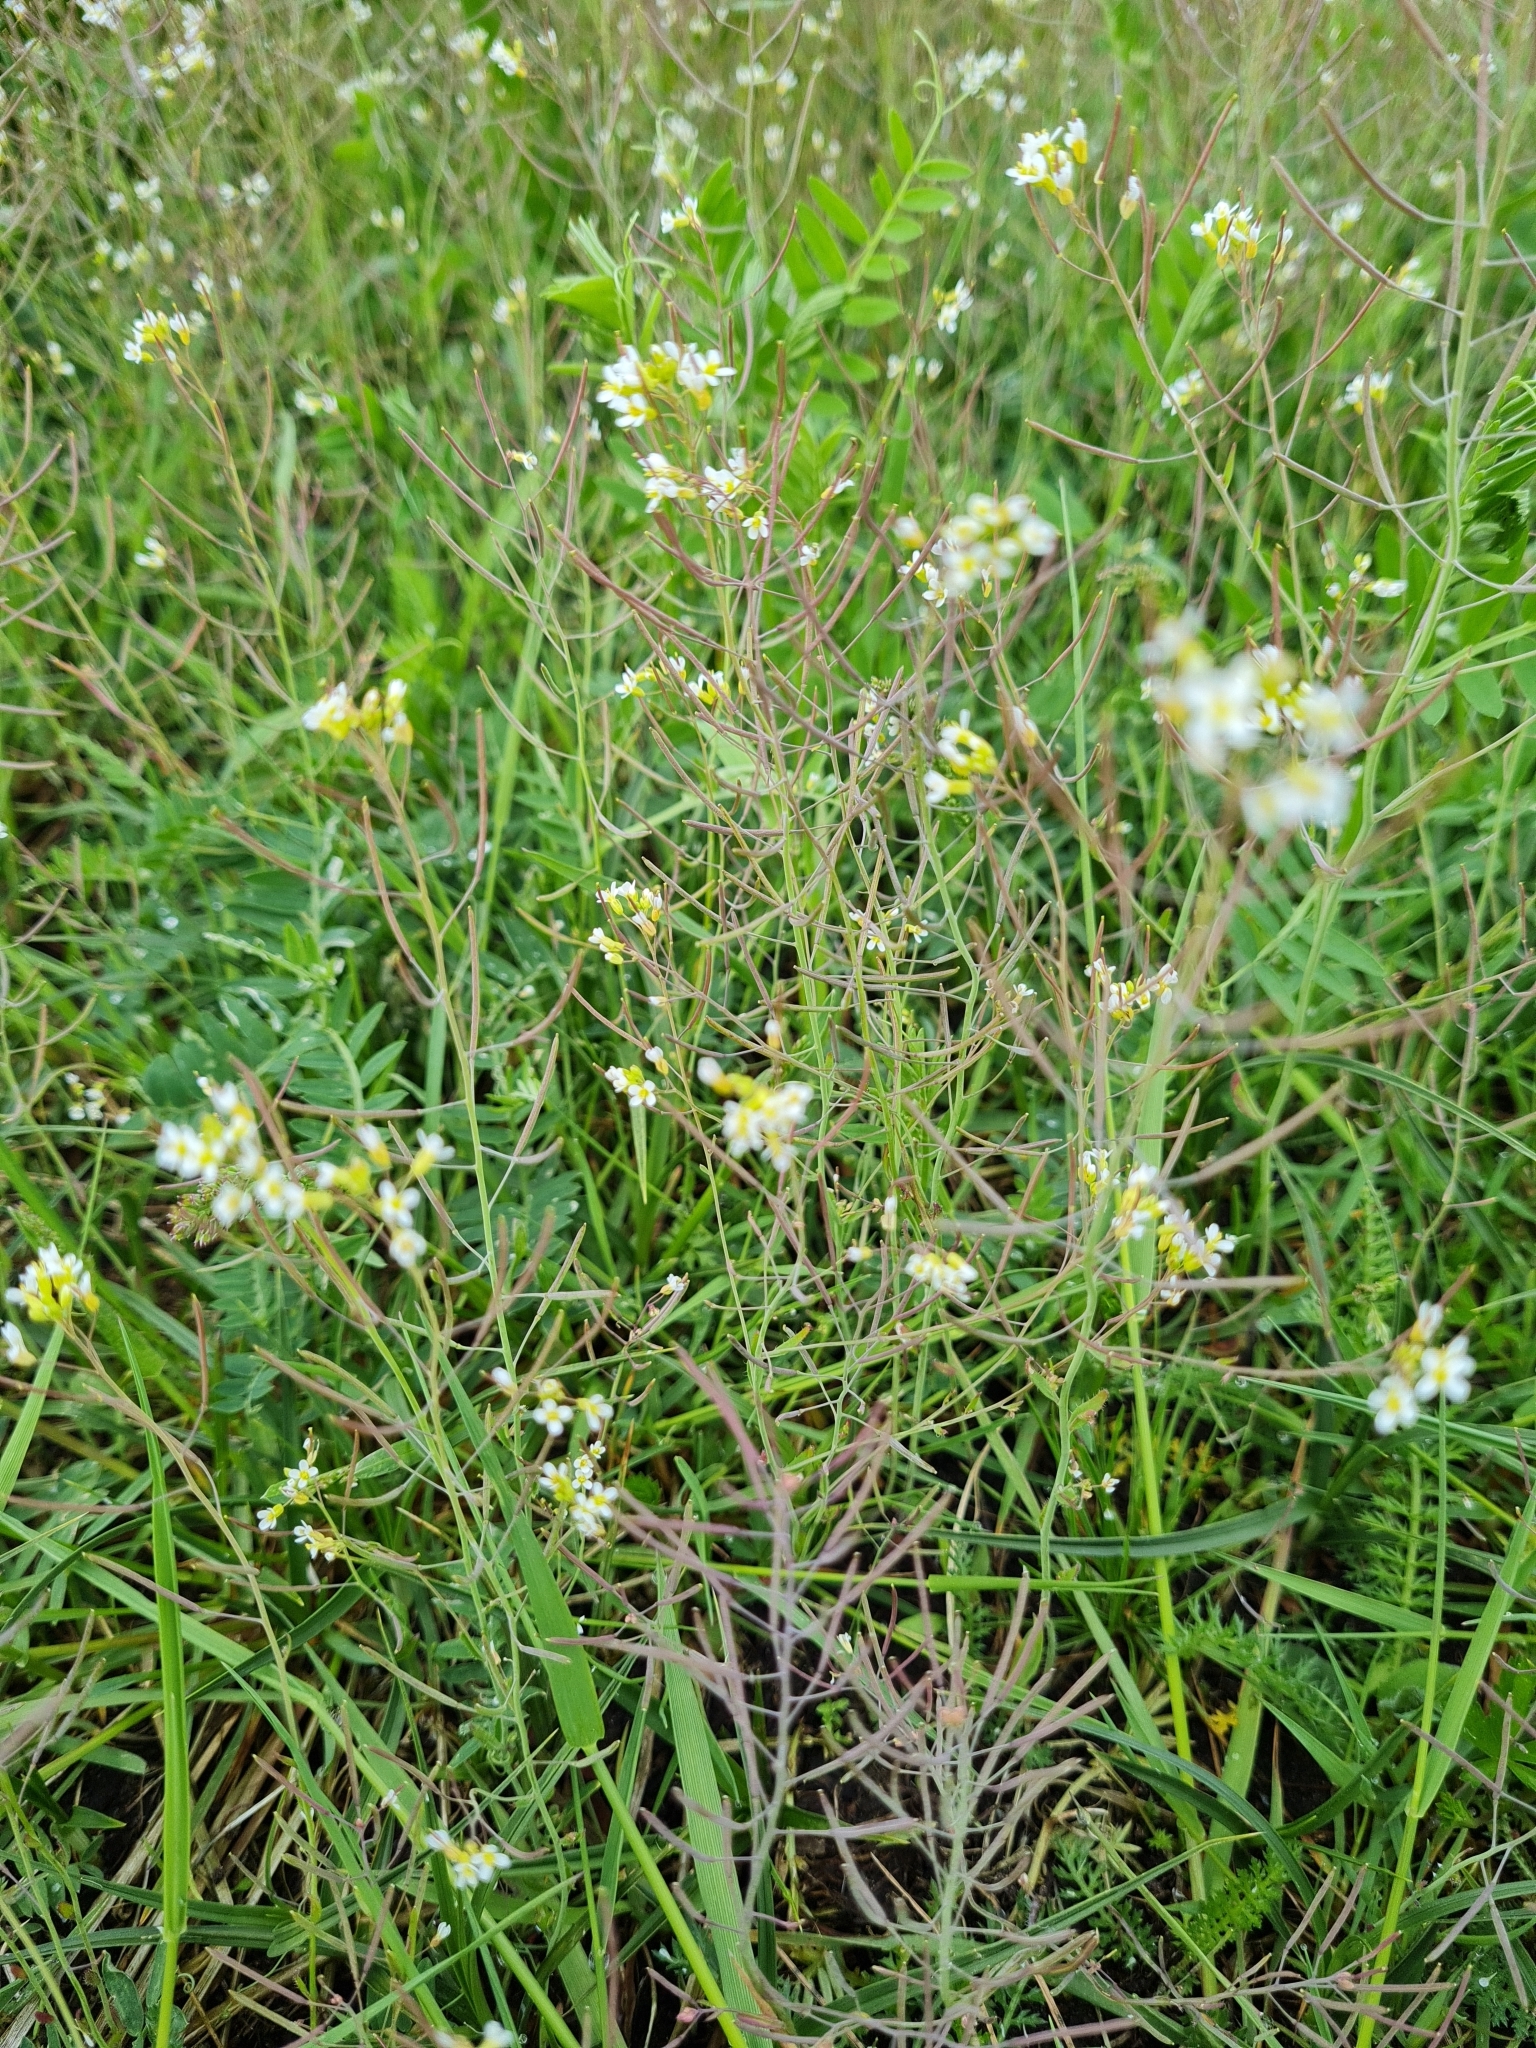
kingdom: Plantae
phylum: Tracheophyta
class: Magnoliopsida
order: Brassicales
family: Brassicaceae
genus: Arabidopsis
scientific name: Arabidopsis thaliana
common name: Thale cress
